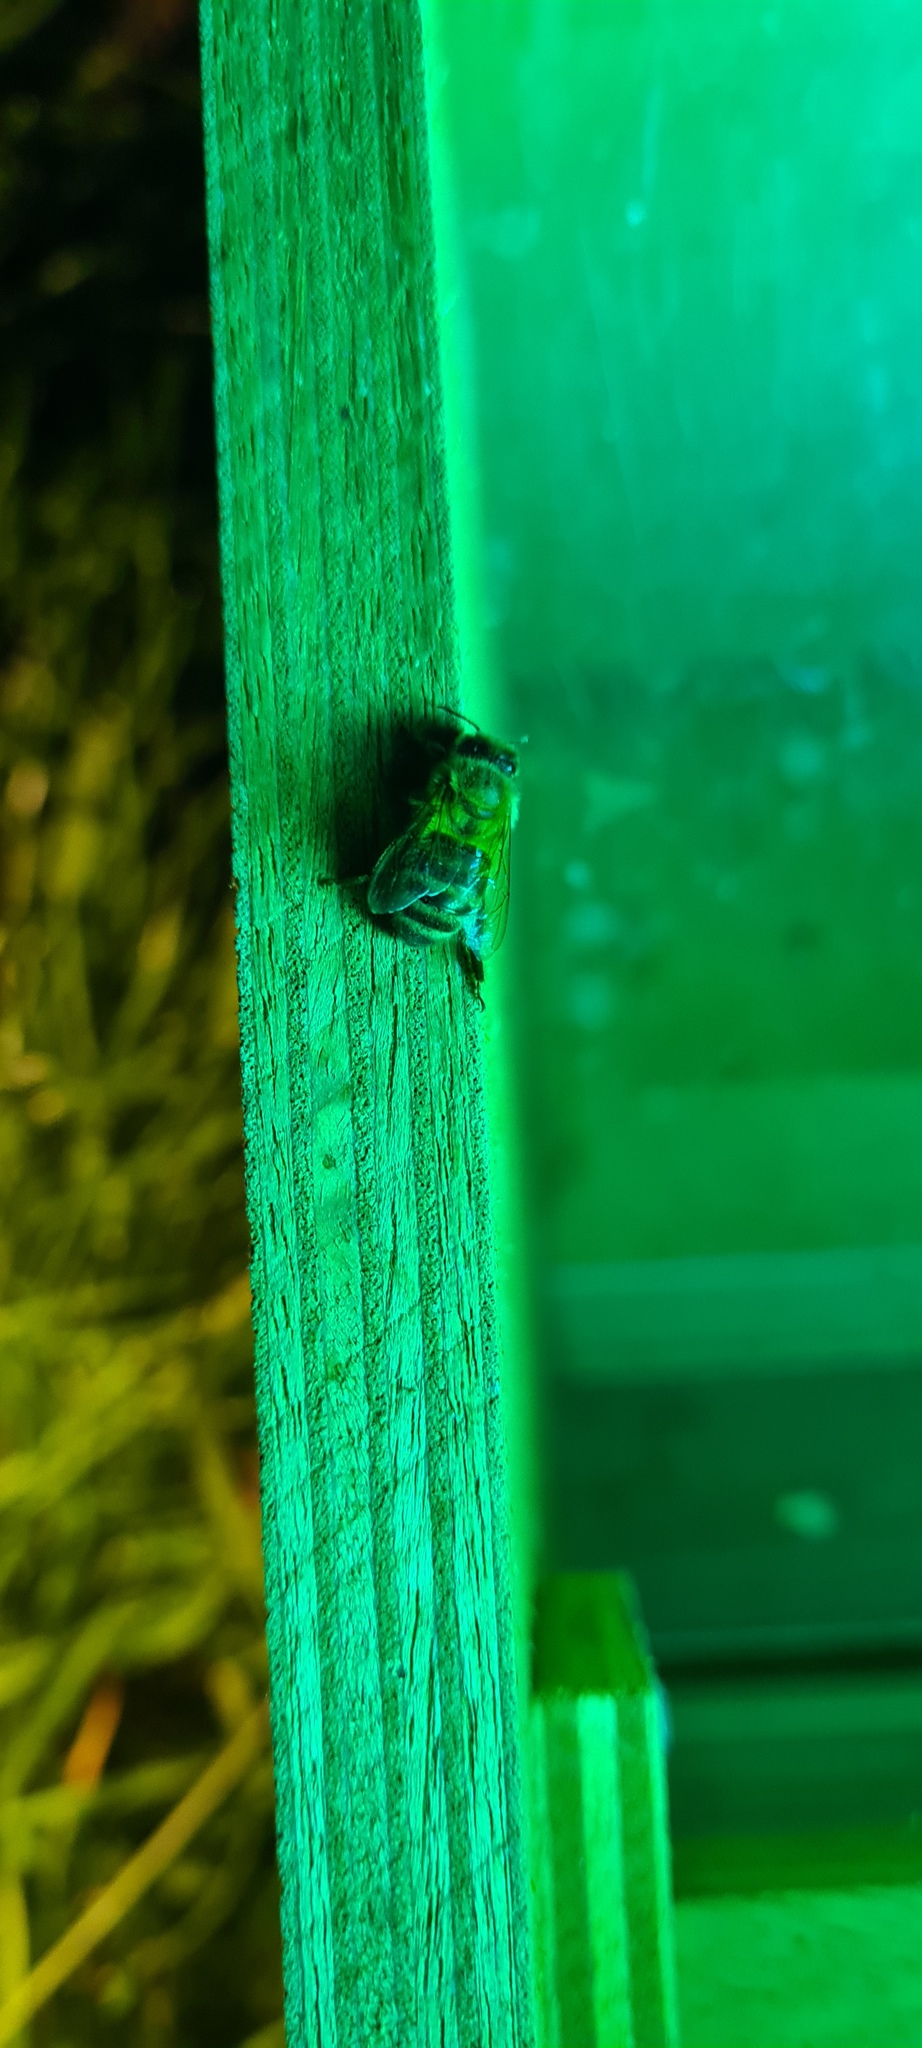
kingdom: Animalia
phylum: Arthropoda
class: Insecta
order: Hymenoptera
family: Apidae
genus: Apis
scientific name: Apis mellifera
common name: Honey bee
